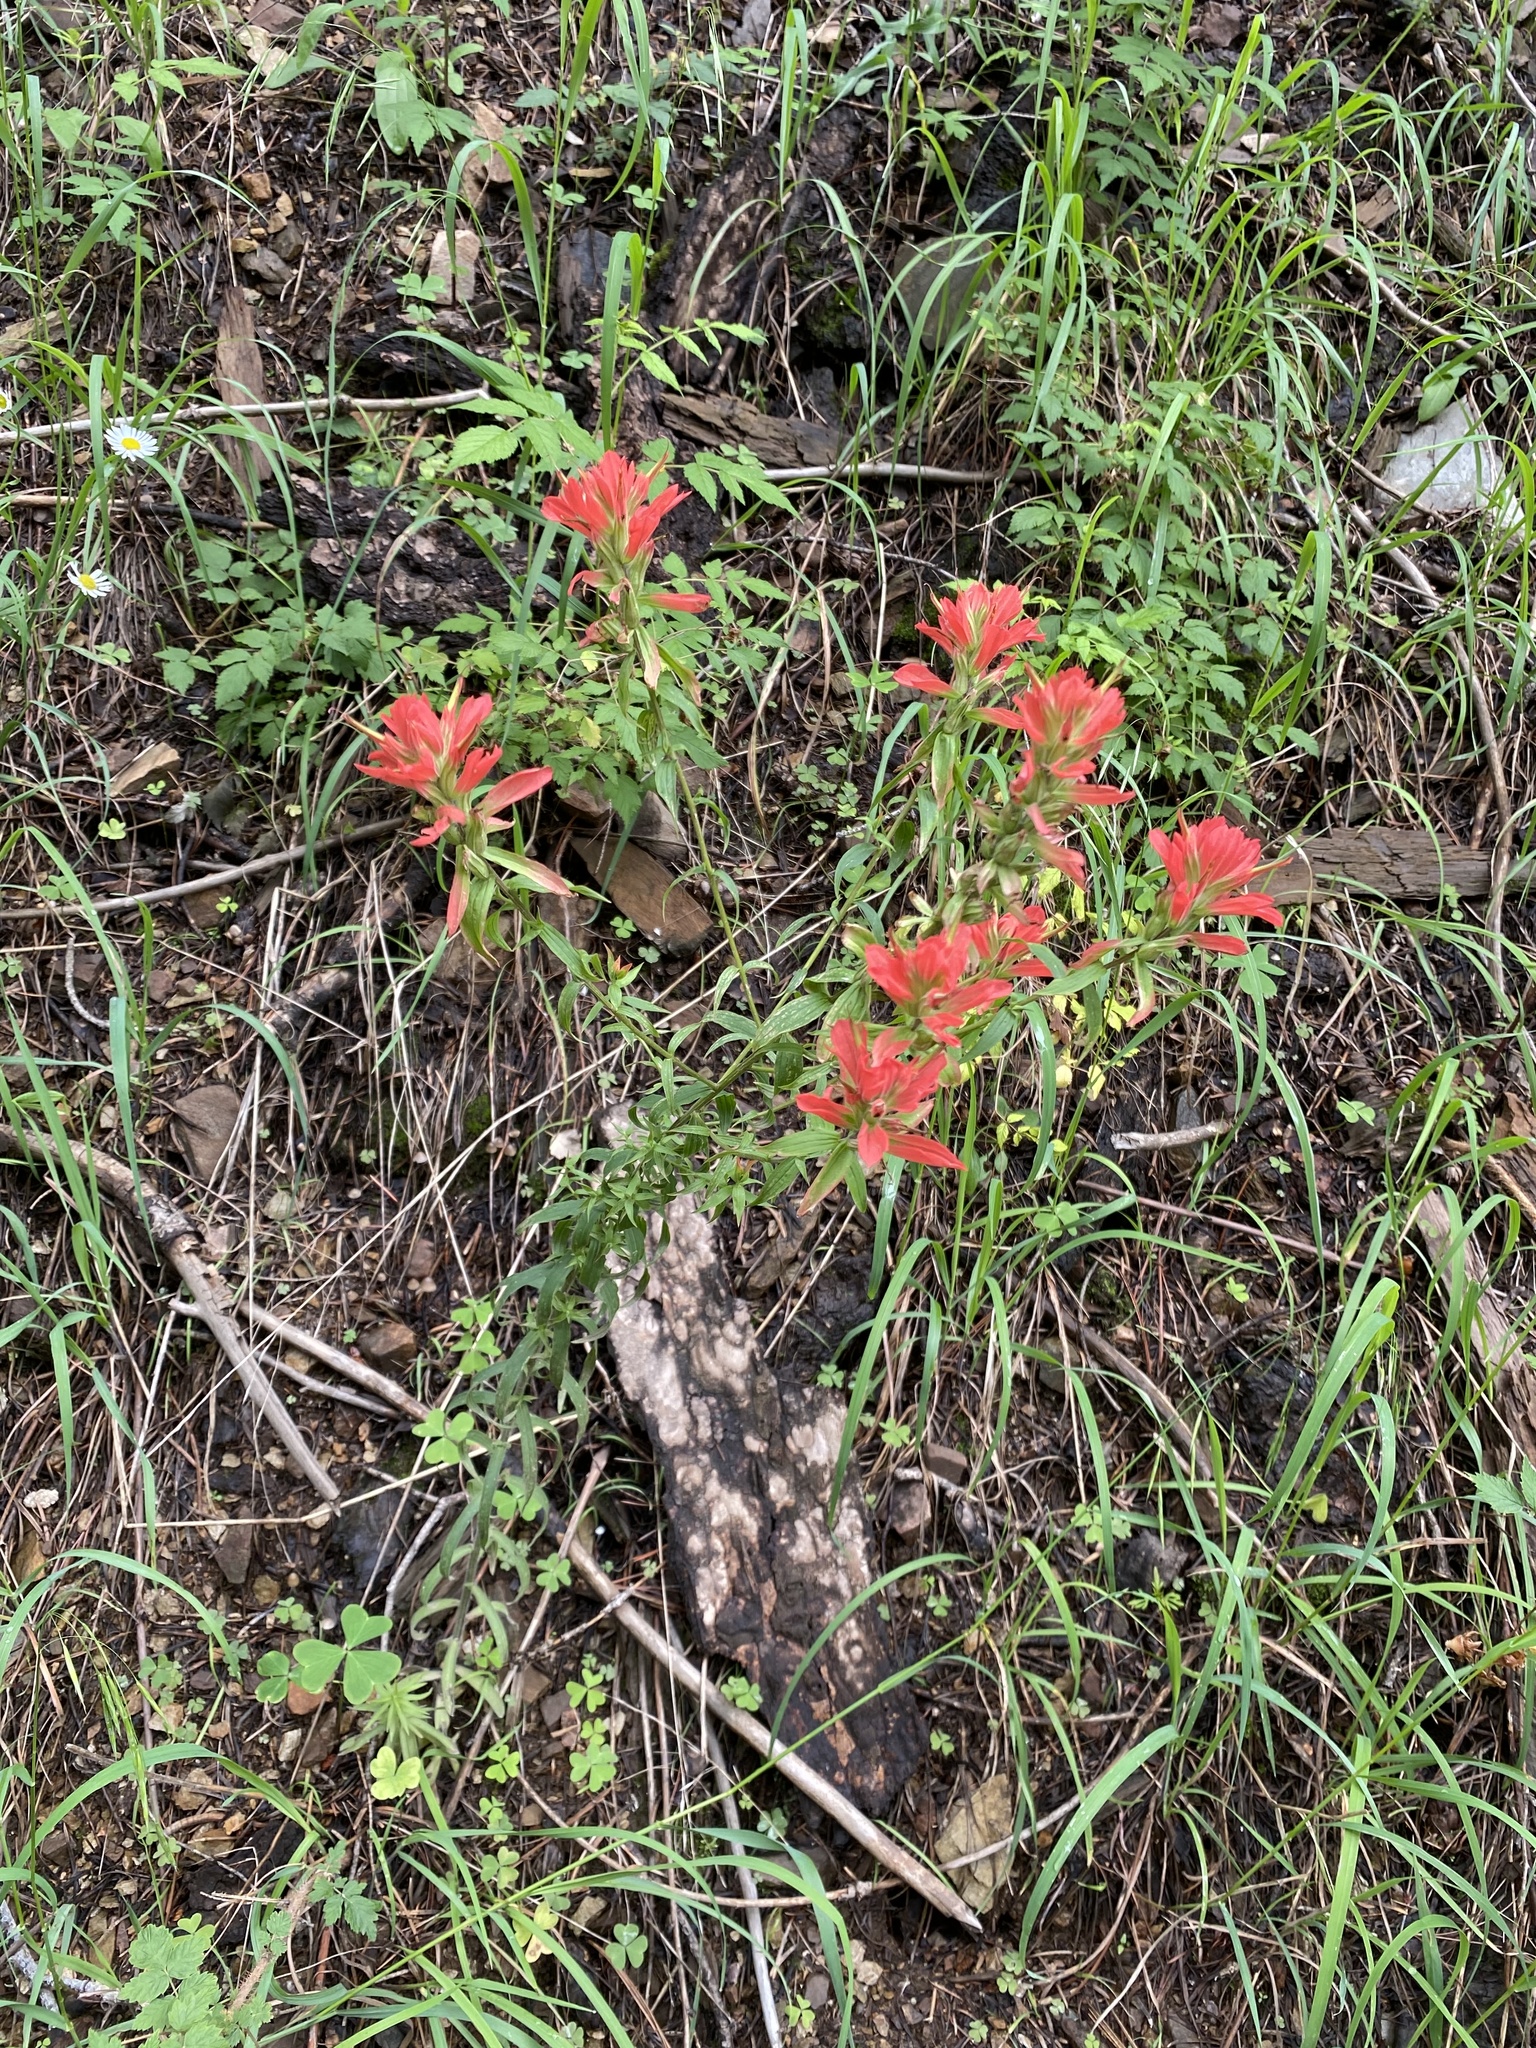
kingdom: Plantae
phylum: Tracheophyta
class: Magnoliopsida
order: Lamiales
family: Orobanchaceae
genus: Castilleja
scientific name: Castilleja nelsonii
